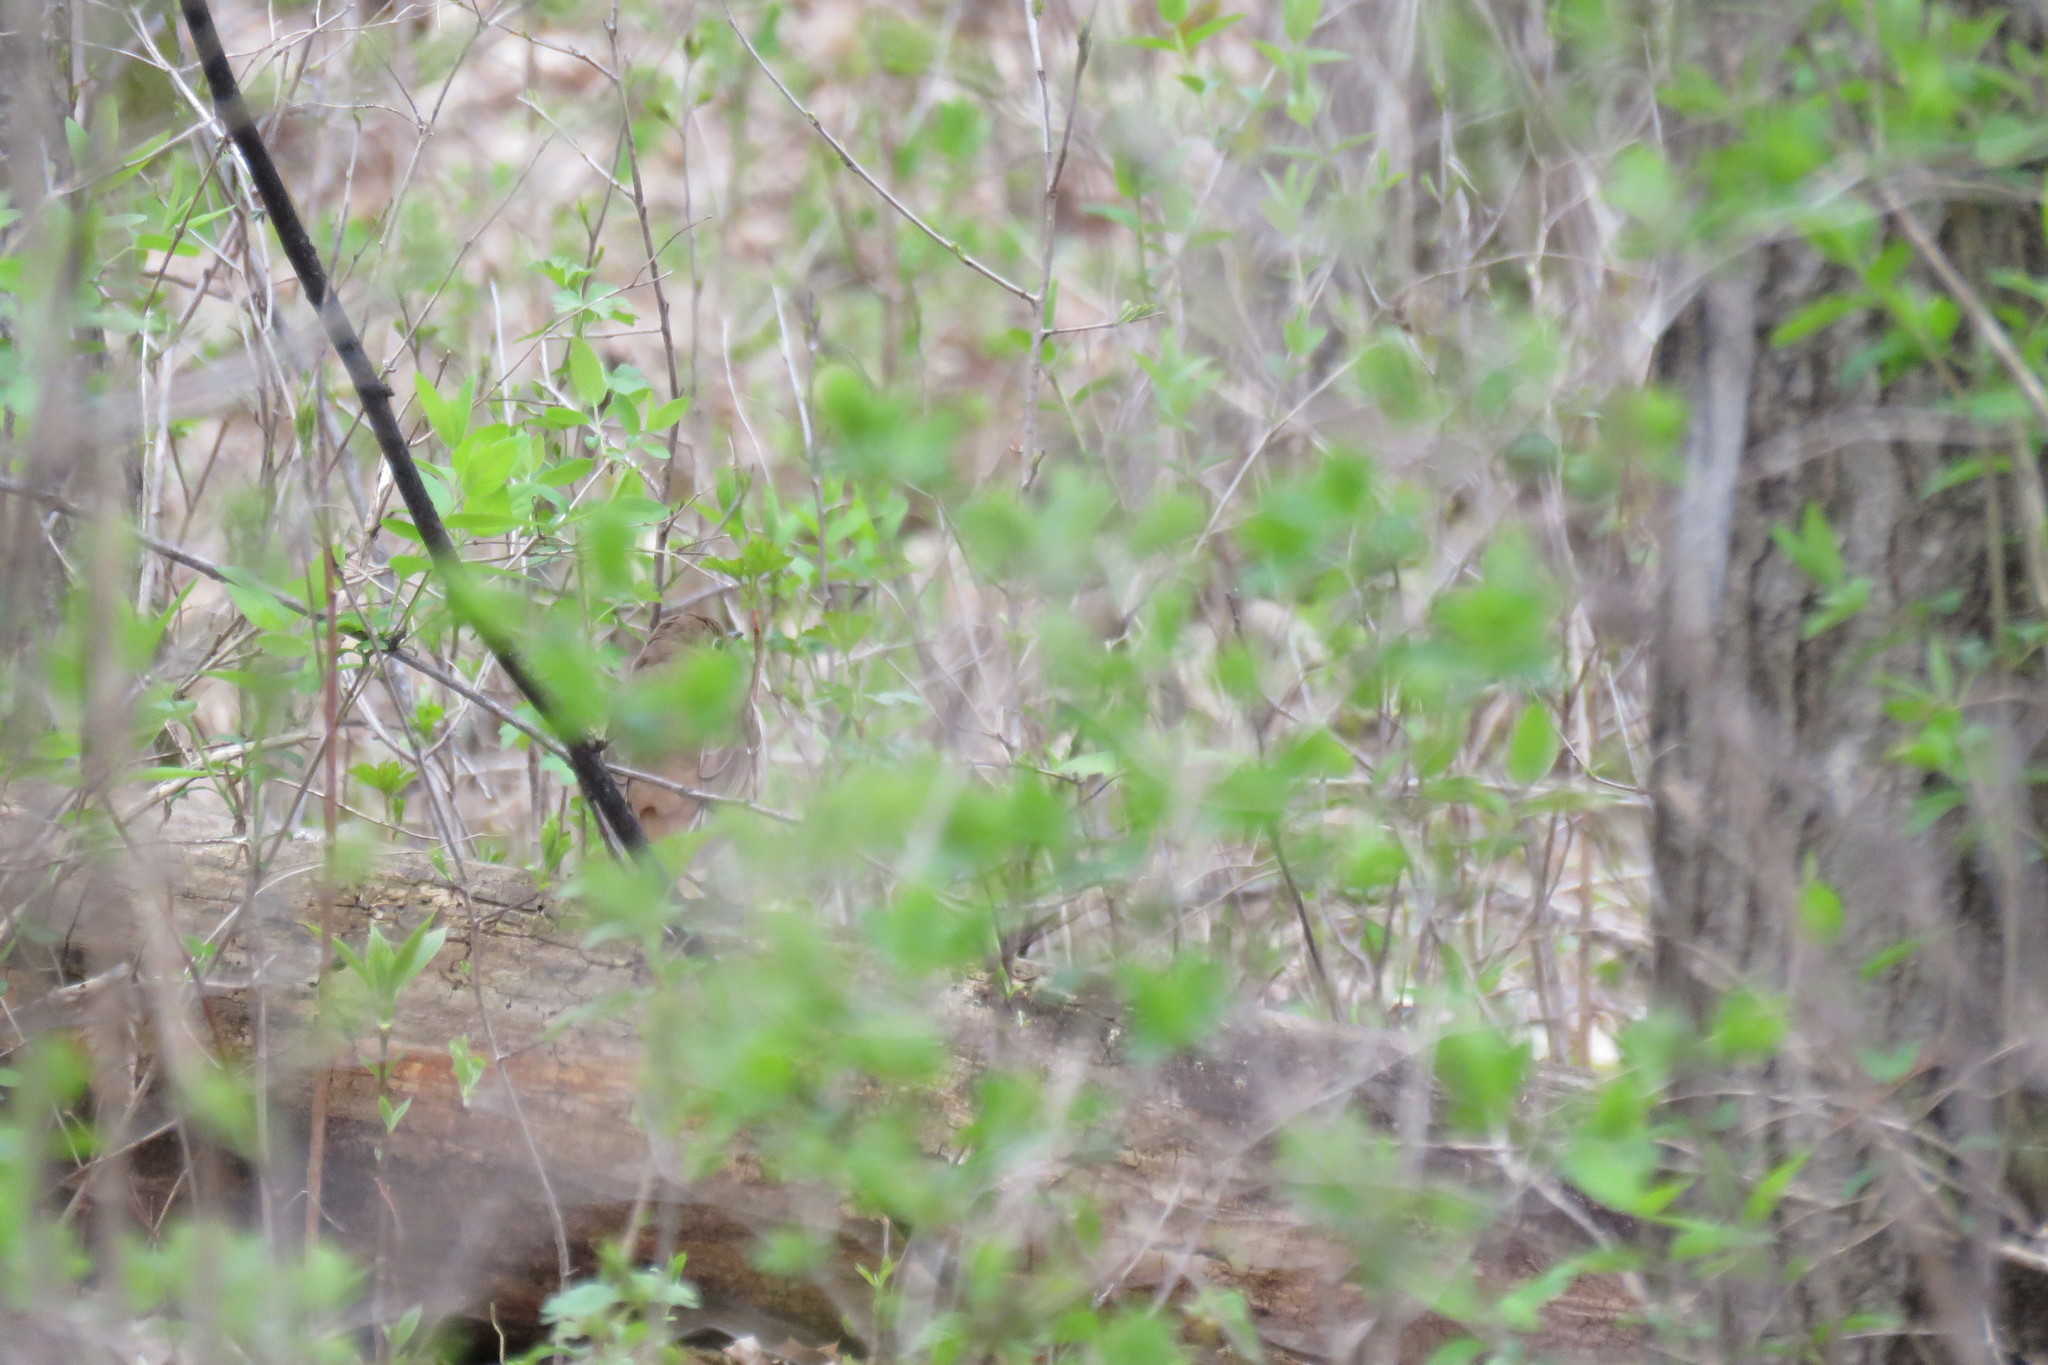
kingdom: Animalia
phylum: Chordata
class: Aves
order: Passeriformes
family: Turdidae
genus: Catharus
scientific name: Catharus guttatus
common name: Hermit thrush
